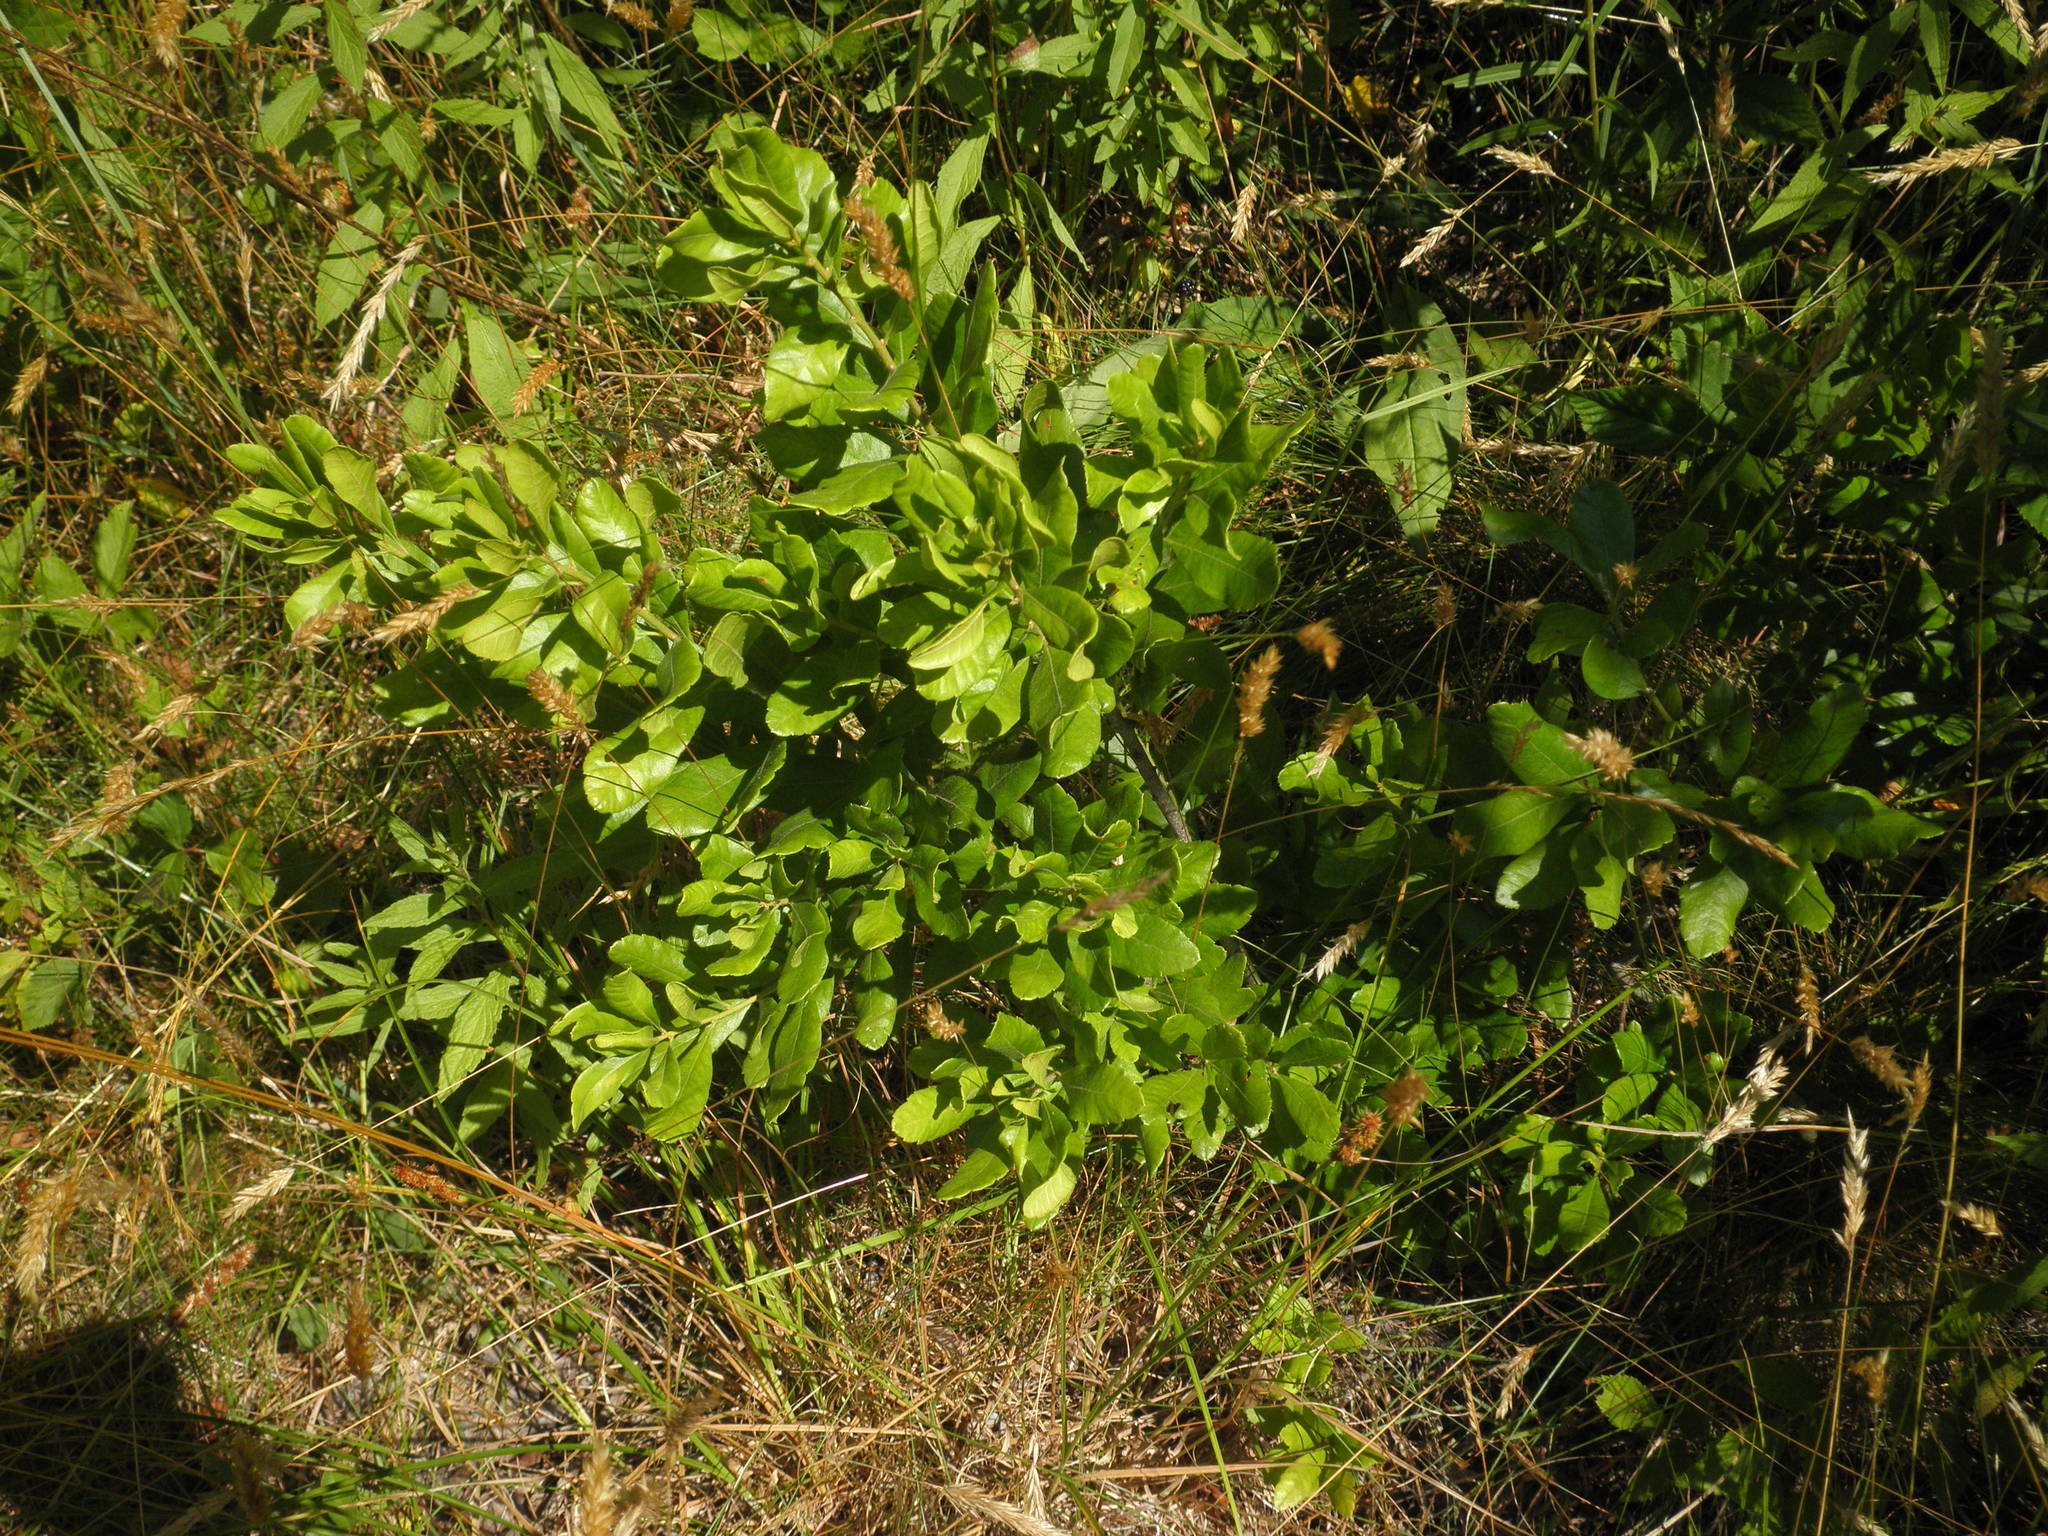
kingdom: Plantae
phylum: Tracheophyta
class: Magnoliopsida
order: Fagales
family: Myricaceae
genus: Morella
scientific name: Morella pensylvanica
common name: Northern bayberry
